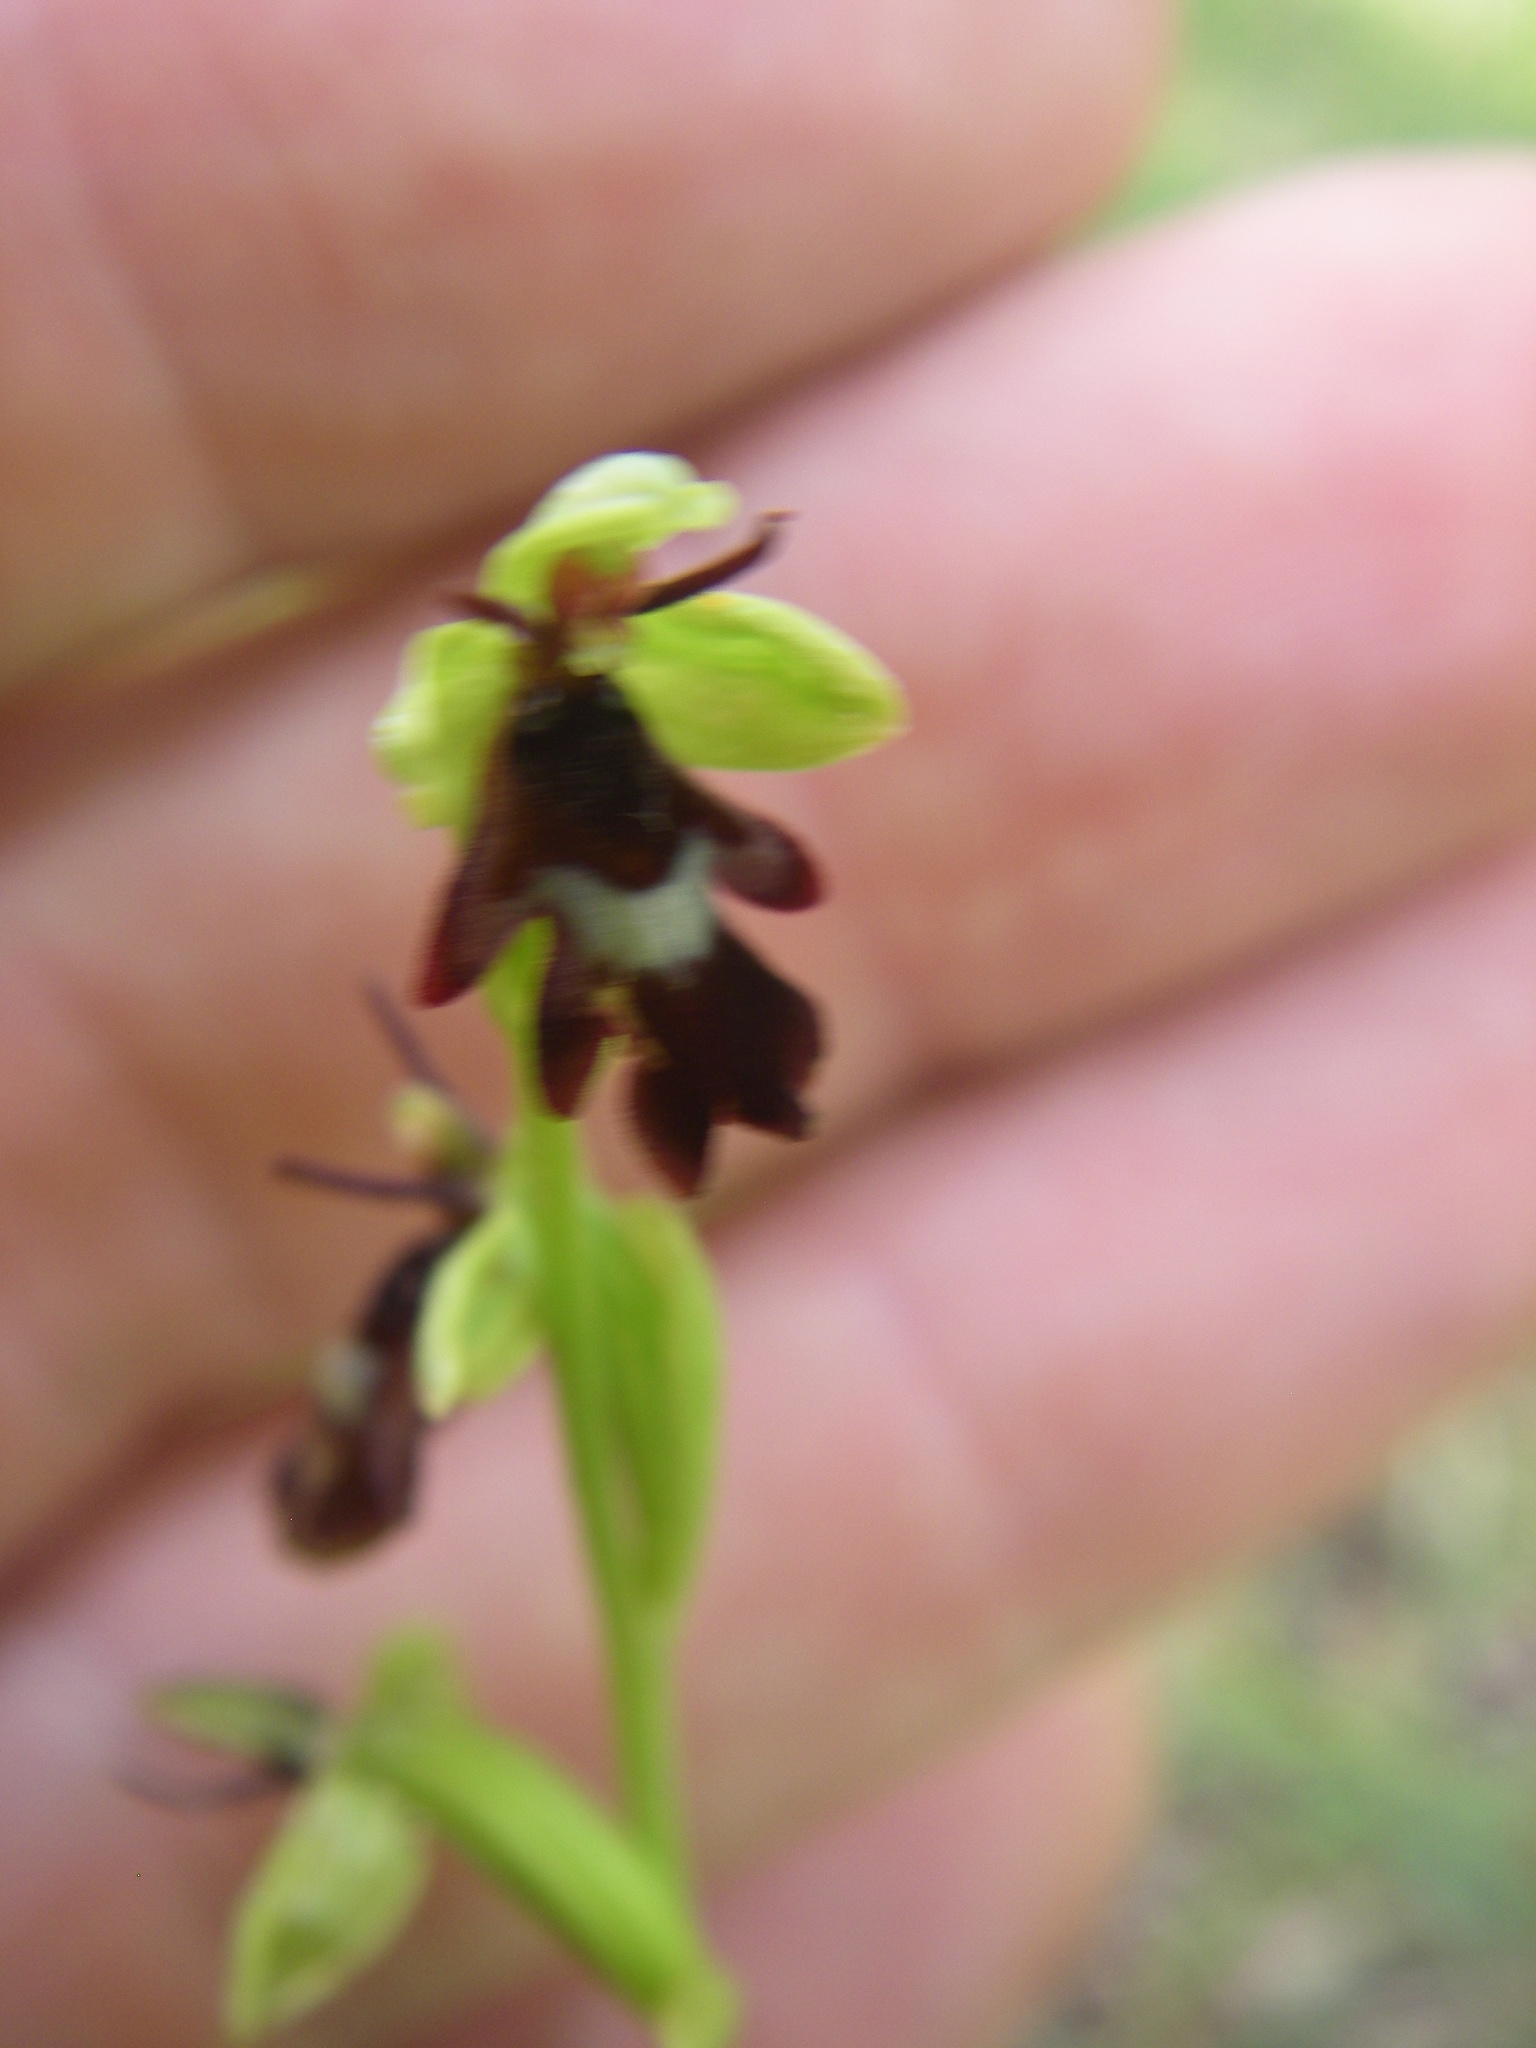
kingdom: Plantae
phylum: Tracheophyta
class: Liliopsida
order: Asparagales
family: Orchidaceae
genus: Ophrys
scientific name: Ophrys insectifera
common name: Fly orchid
